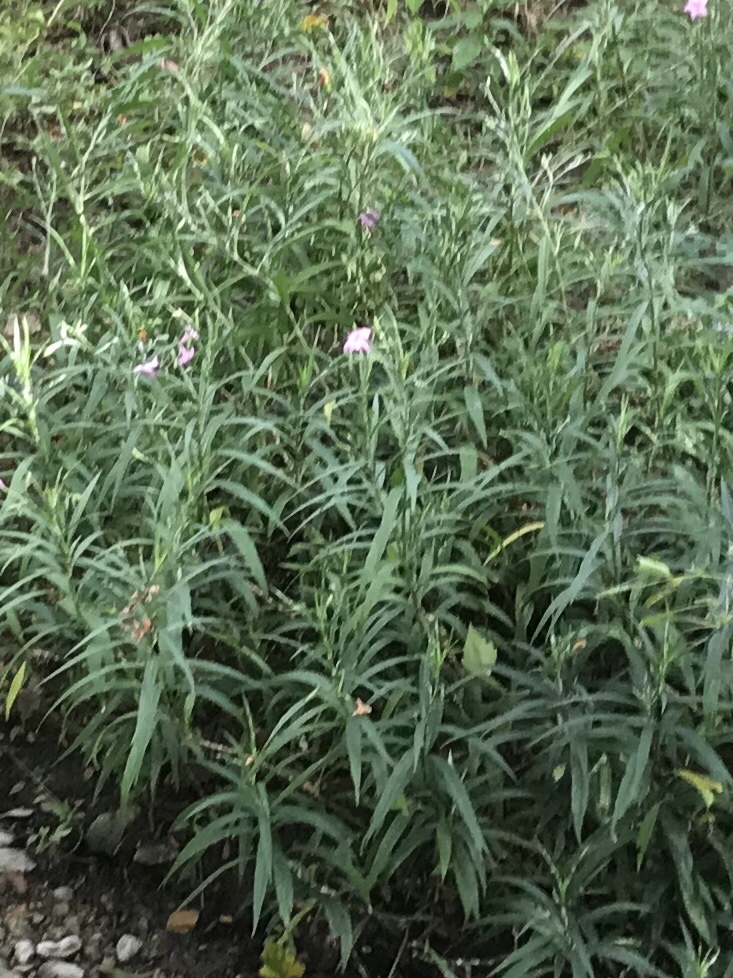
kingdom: Plantae
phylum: Tracheophyta
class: Magnoliopsida
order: Lamiales
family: Acanthaceae
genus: Ruellia
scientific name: Ruellia simplex
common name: Softseed wild petunia
